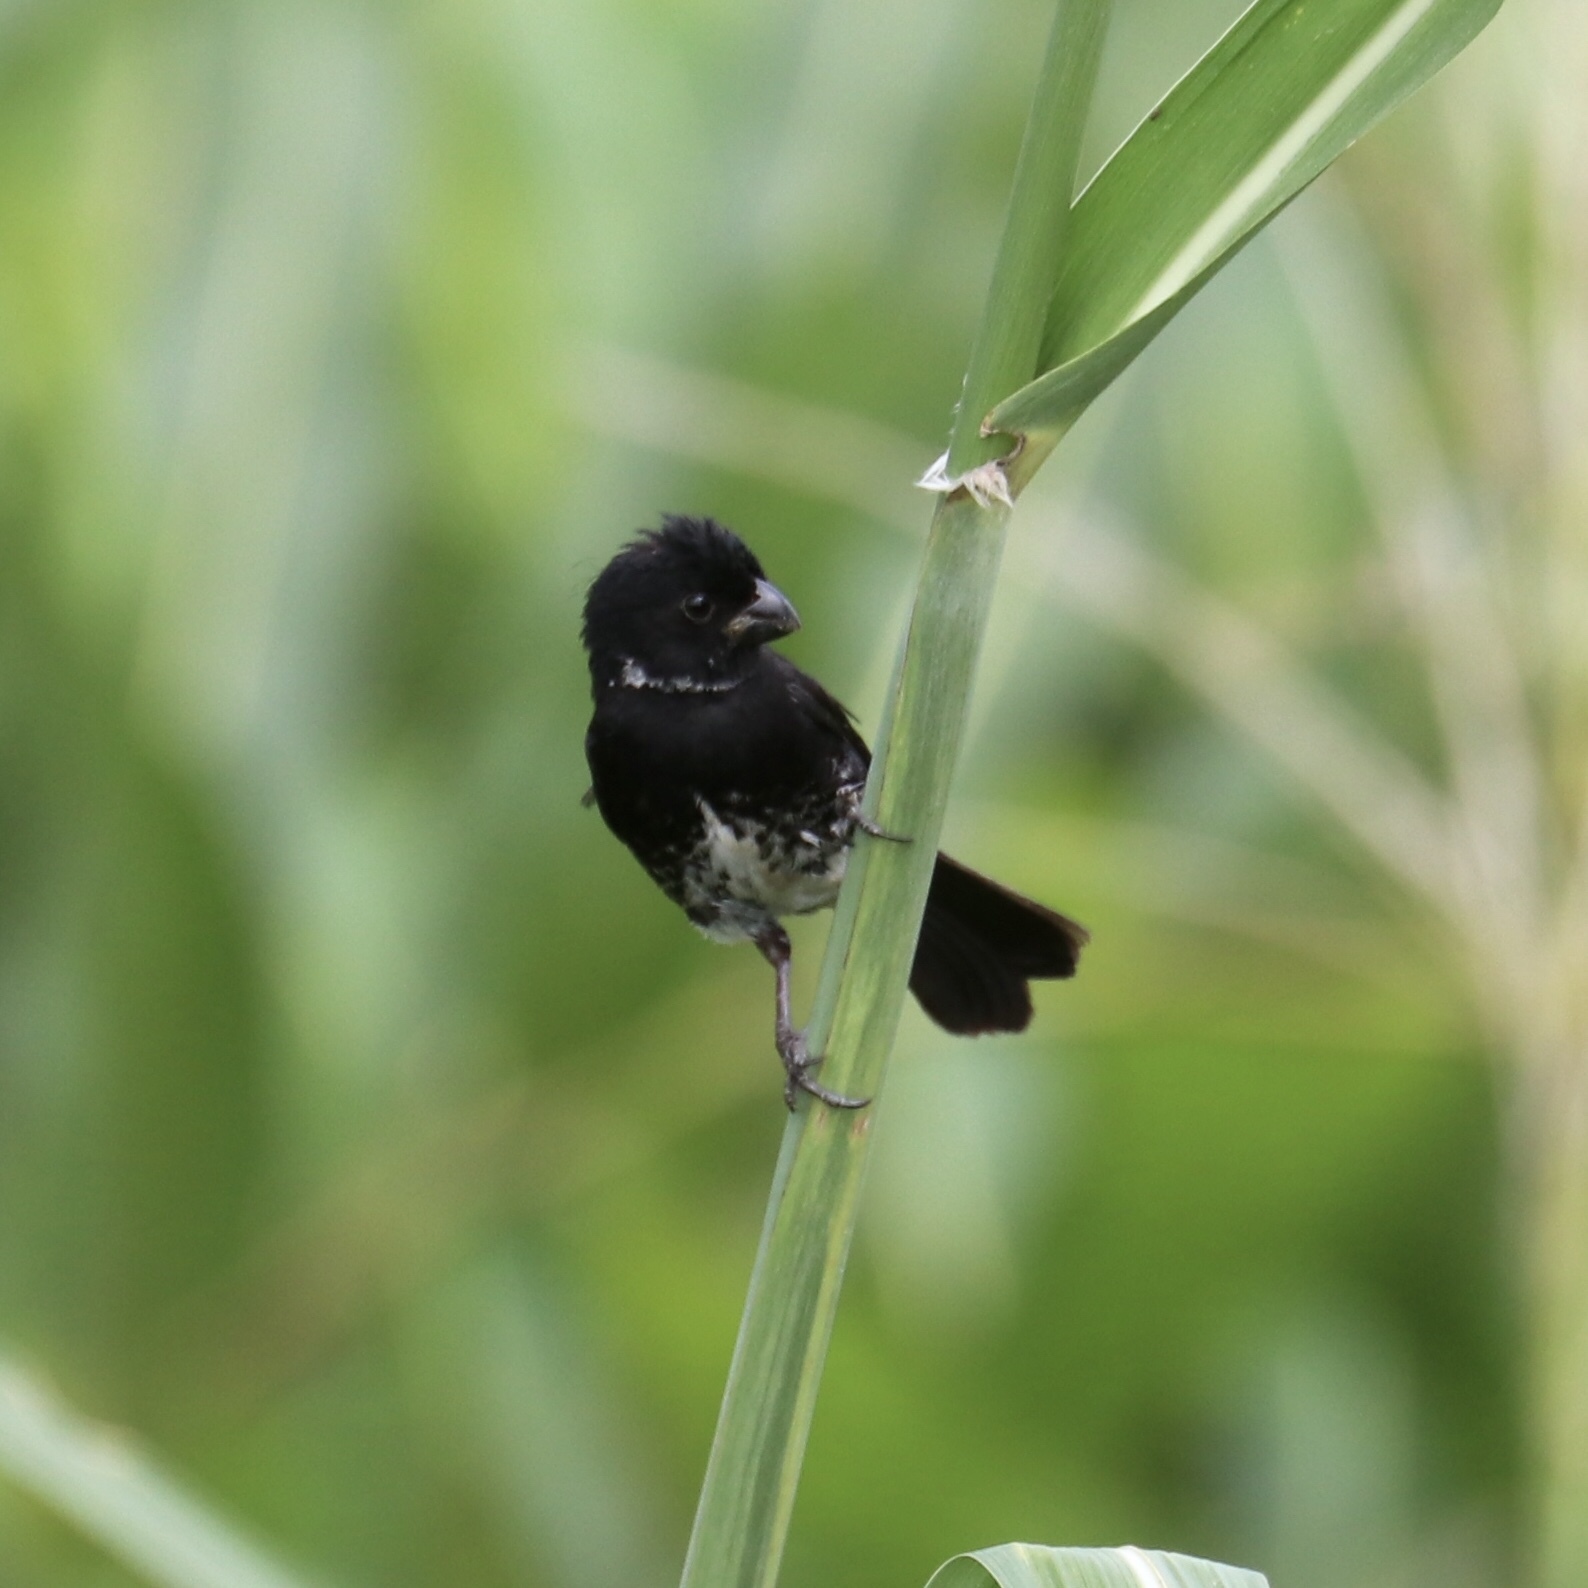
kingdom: Animalia
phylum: Chordata
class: Aves
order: Passeriformes
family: Thraupidae
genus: Sporophila
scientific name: Sporophila corvina
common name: Variable seedeater
